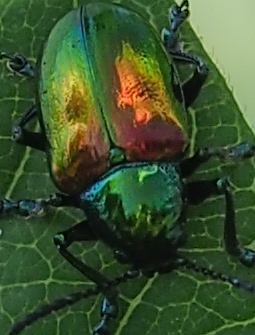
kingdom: Animalia
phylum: Arthropoda
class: Insecta
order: Coleoptera
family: Chrysomelidae
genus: Chrysochus
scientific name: Chrysochus auratus
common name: Dogbane leaf beetle
